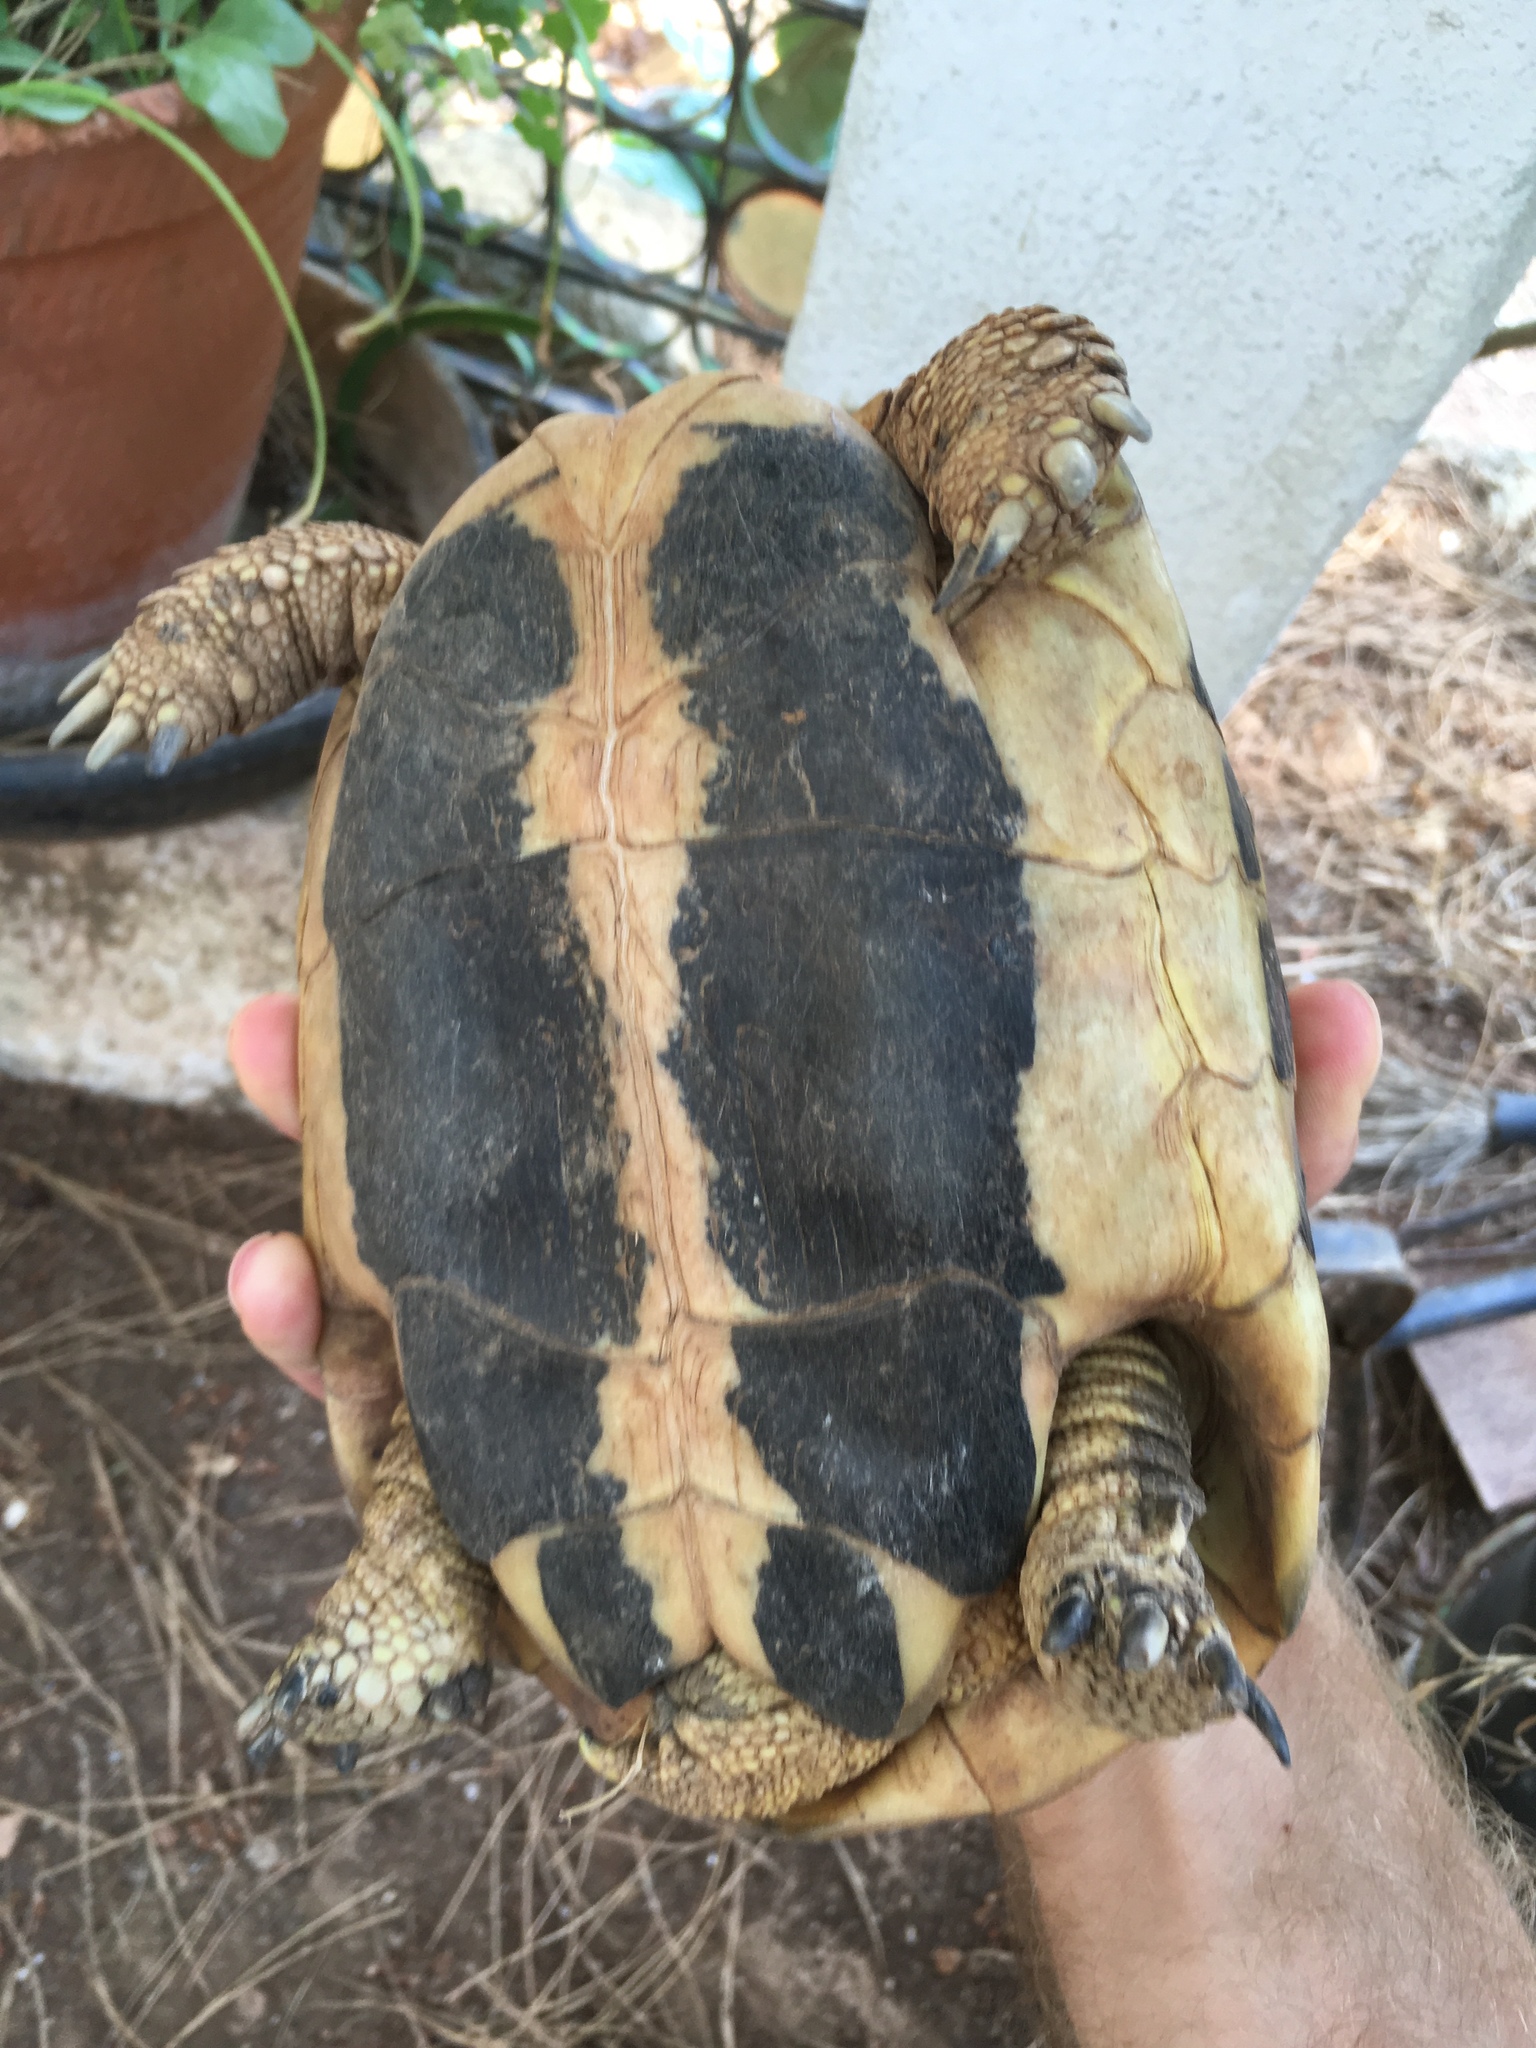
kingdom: Animalia
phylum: Chordata
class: Testudines
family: Testudinidae
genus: Testudo
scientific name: Testudo hermanni
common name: Hermann's tortoise
